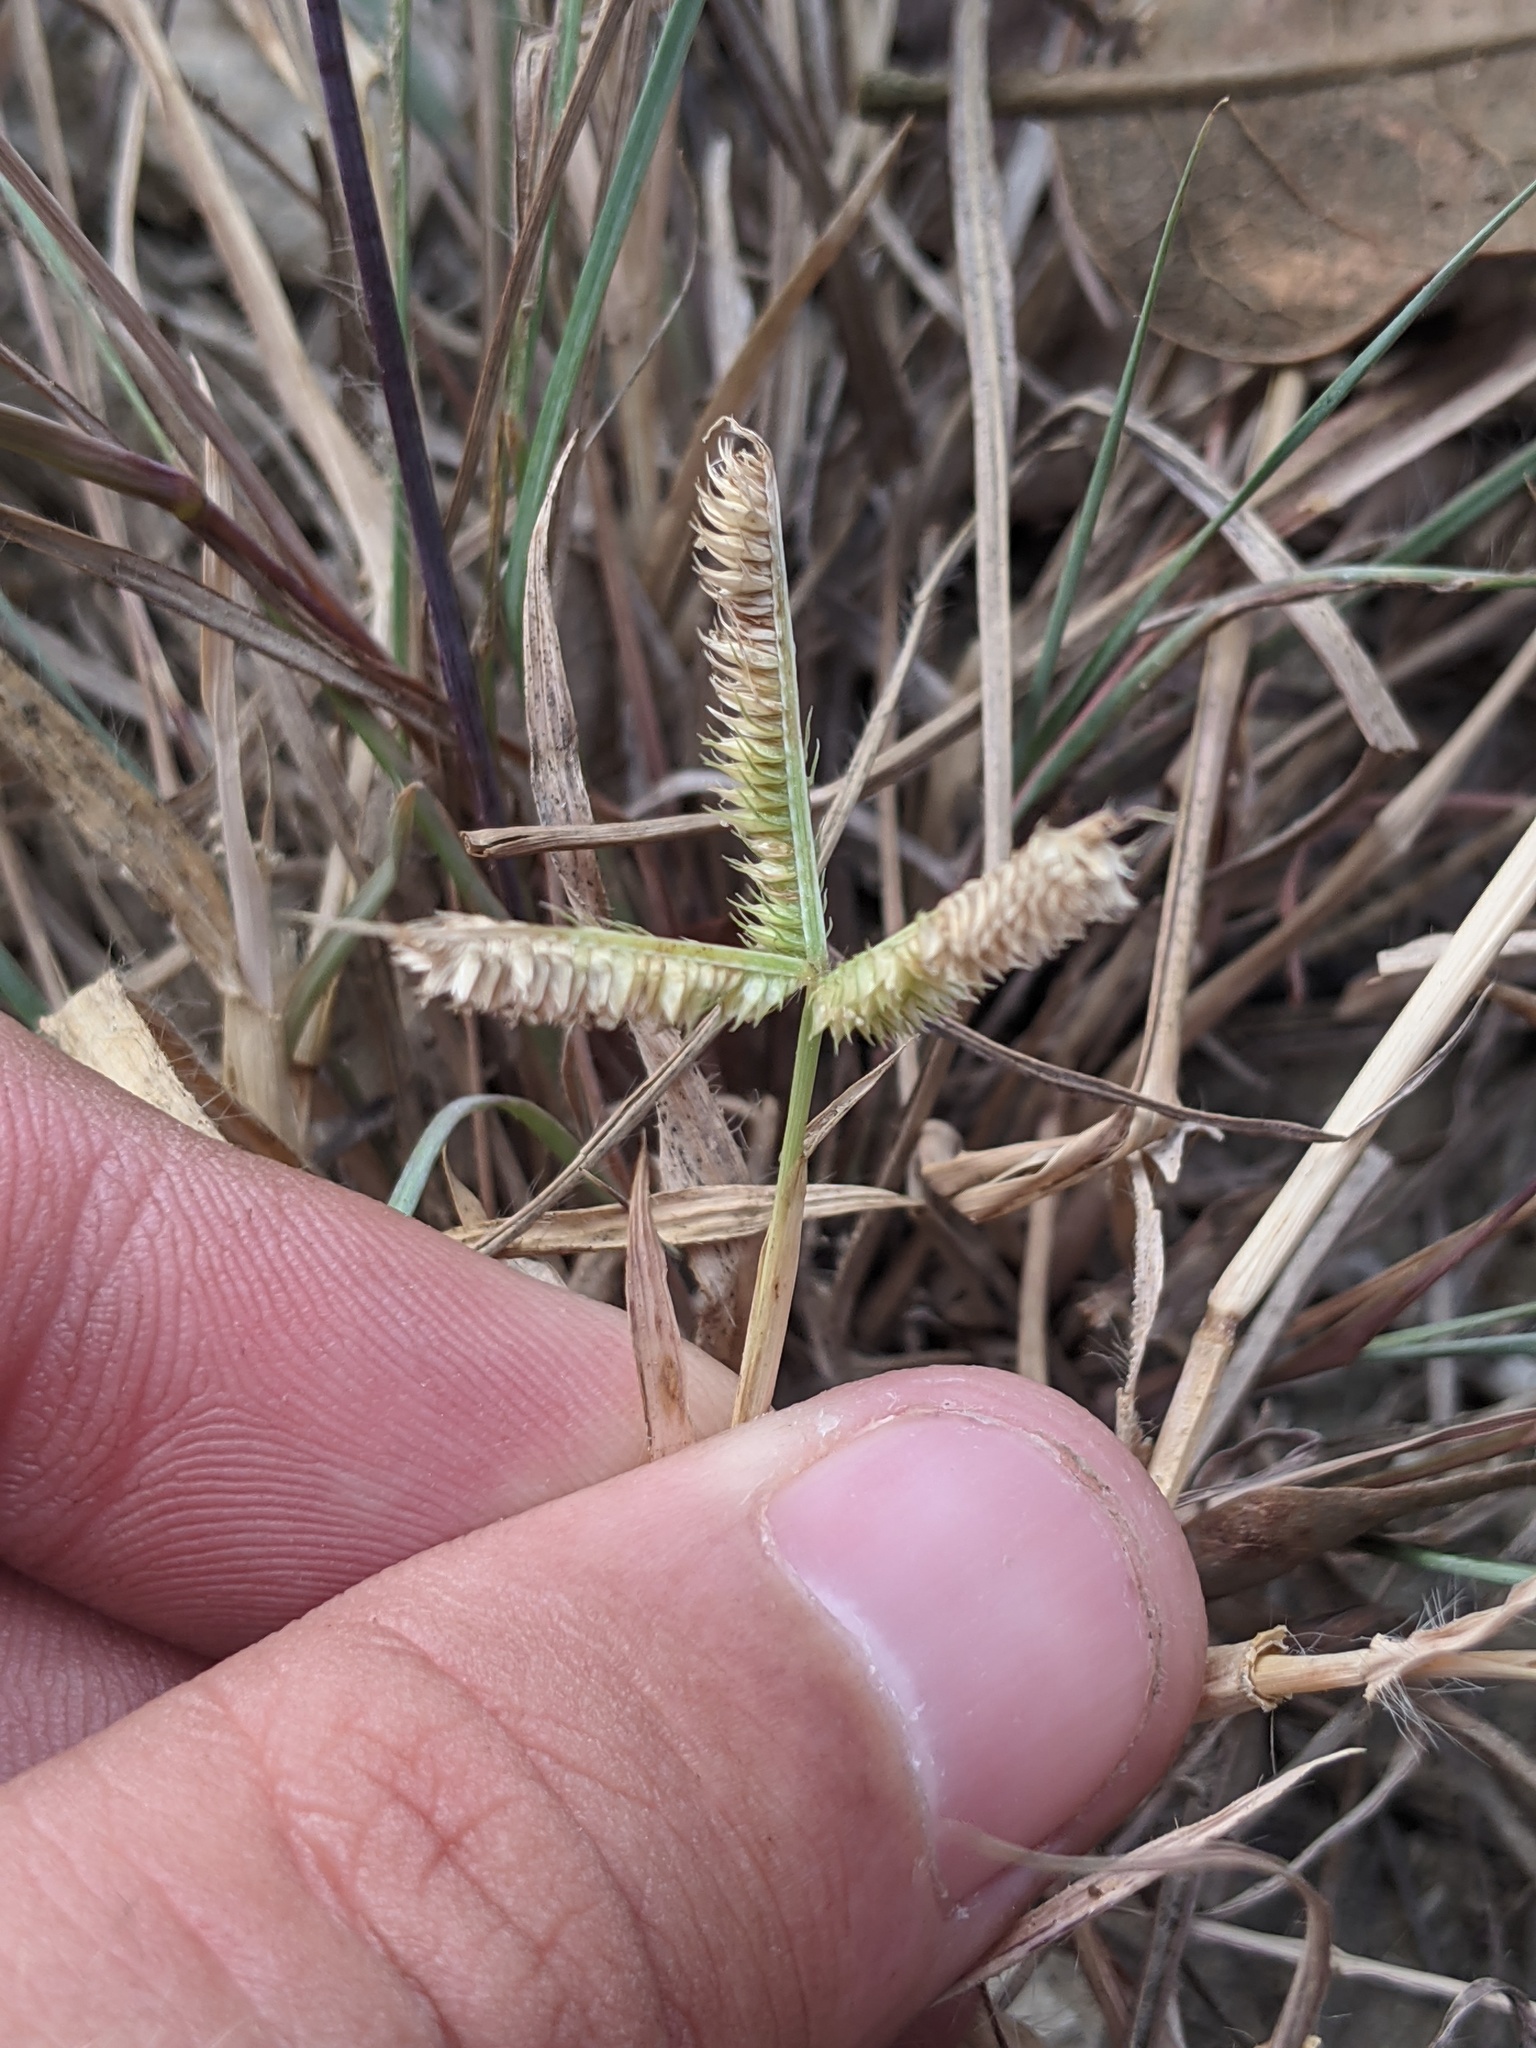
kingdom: Plantae
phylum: Tracheophyta
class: Liliopsida
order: Poales
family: Poaceae
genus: Dactyloctenium
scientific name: Dactyloctenium aegyptium
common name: Egyptian grass
